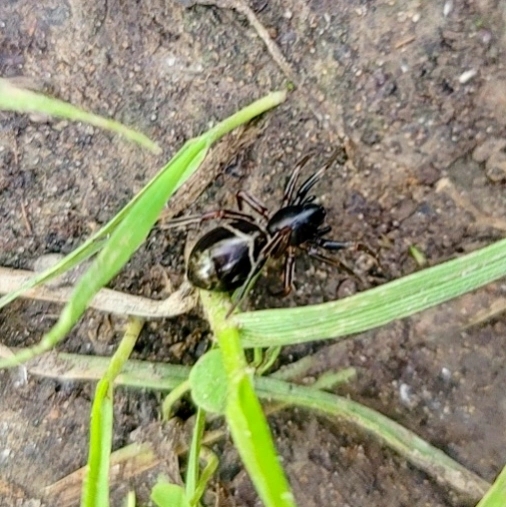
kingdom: Animalia
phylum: Arthropoda
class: Arachnida
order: Araneae
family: Corinnidae
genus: Castianeira
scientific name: Castianeira cingulata
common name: Two-banded ant-mimic sac spider
